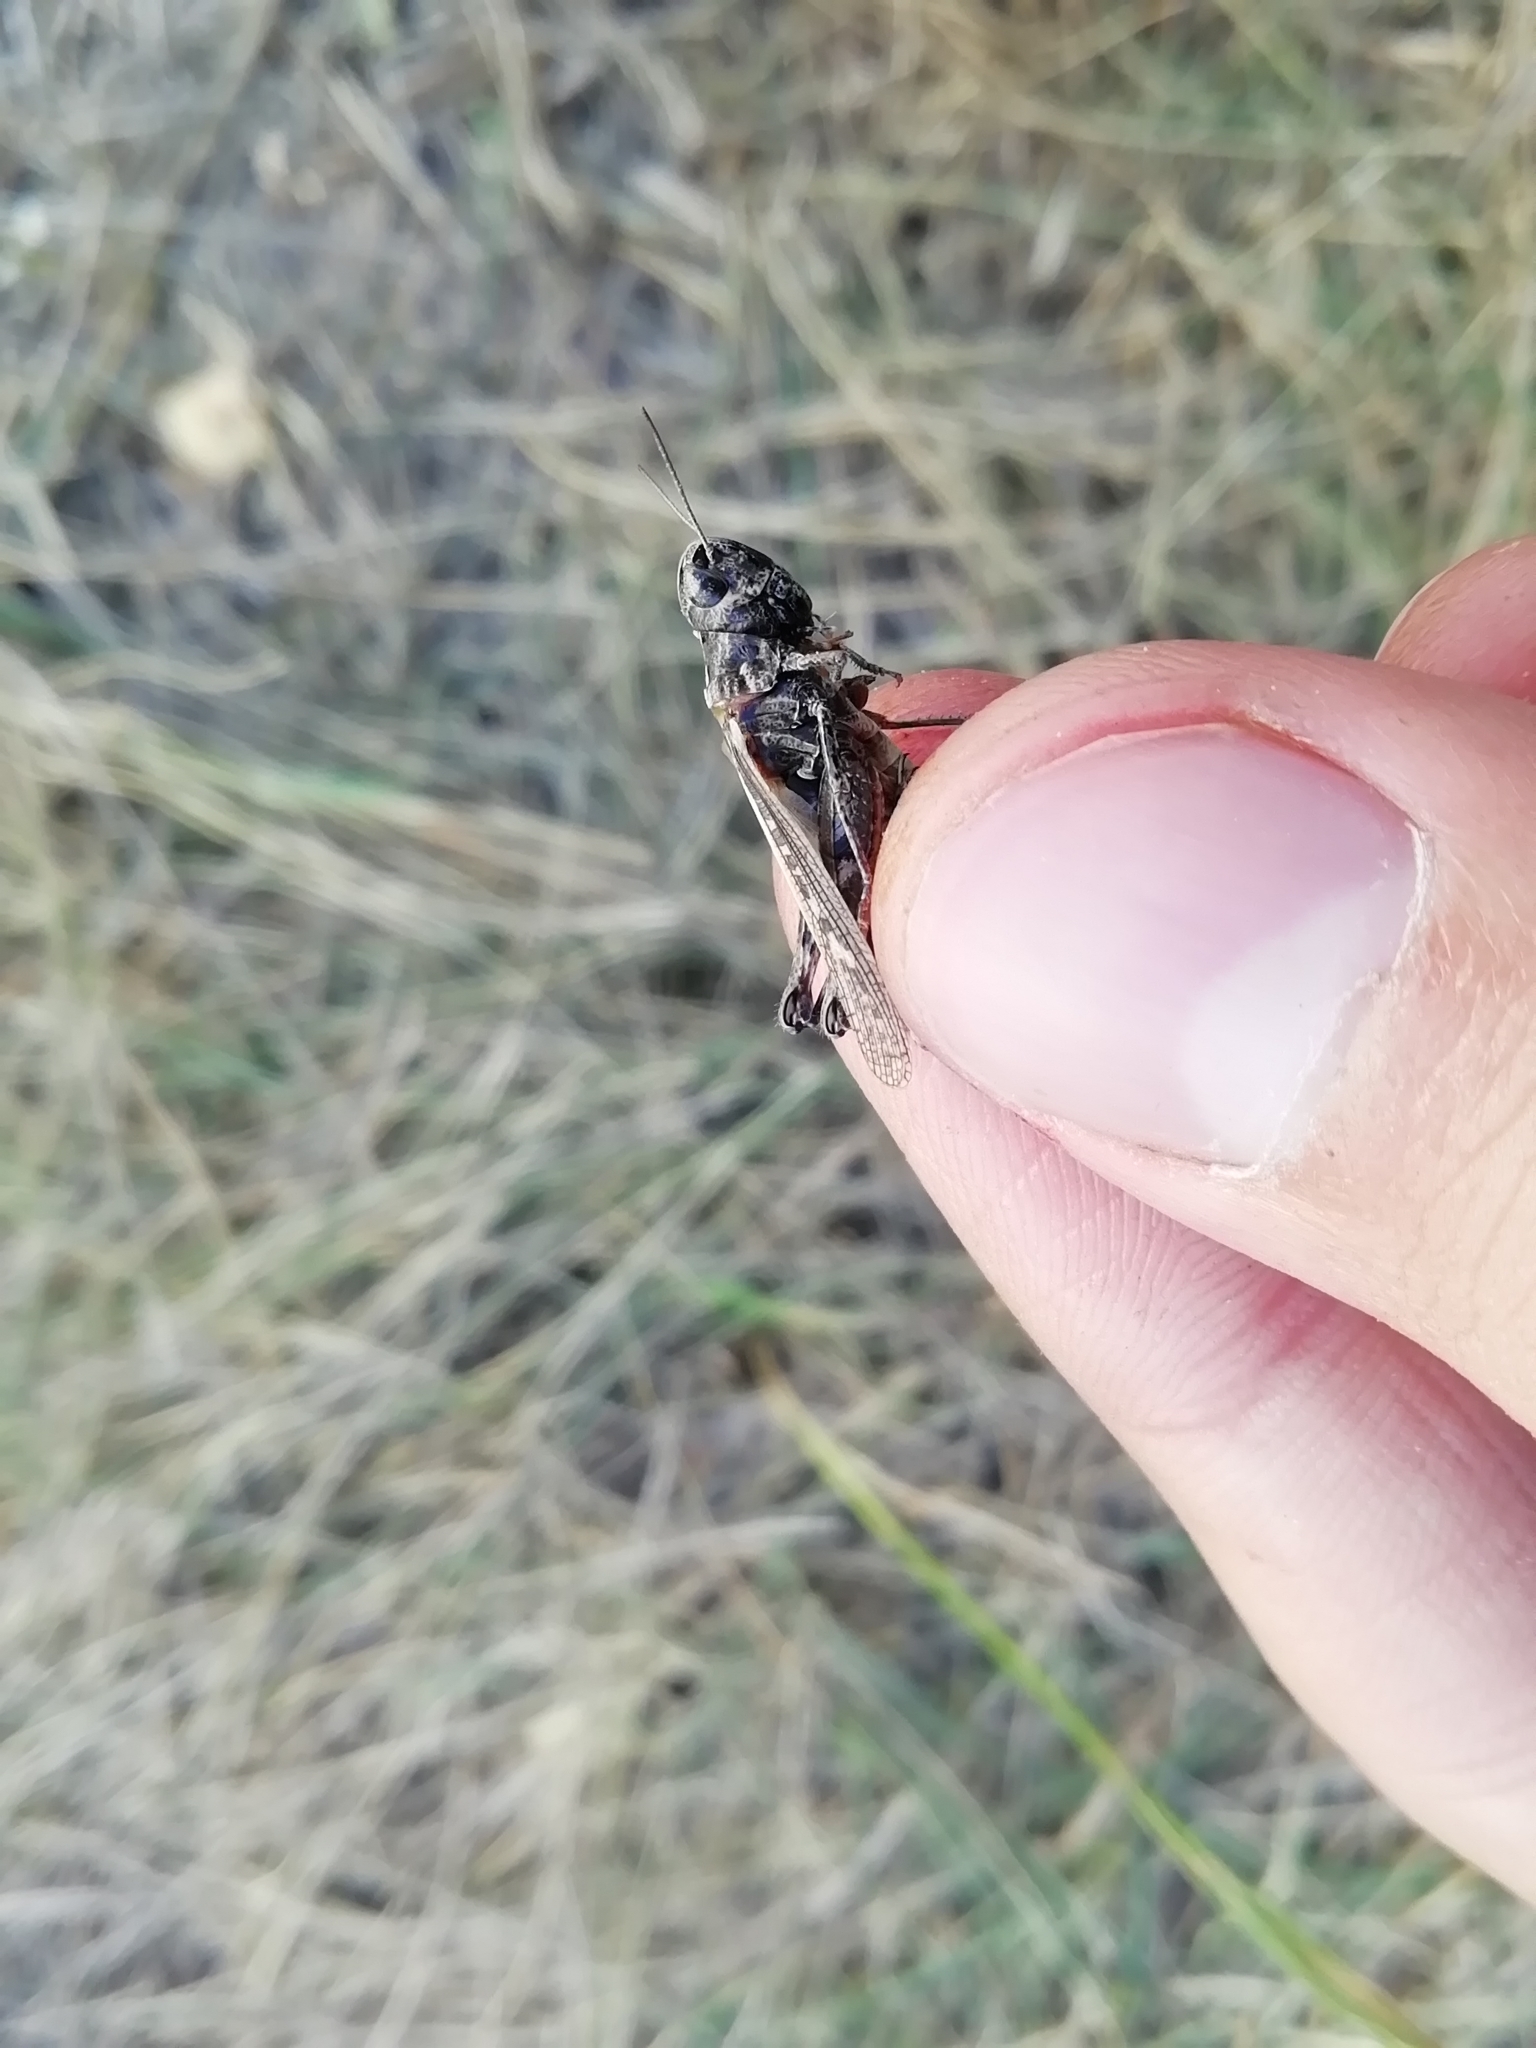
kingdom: Animalia
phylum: Arthropoda
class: Insecta
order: Orthoptera
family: Acrididae
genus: Omocestus
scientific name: Omocestus haemorrhoidalis
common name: Orange-tipped grasshopper
